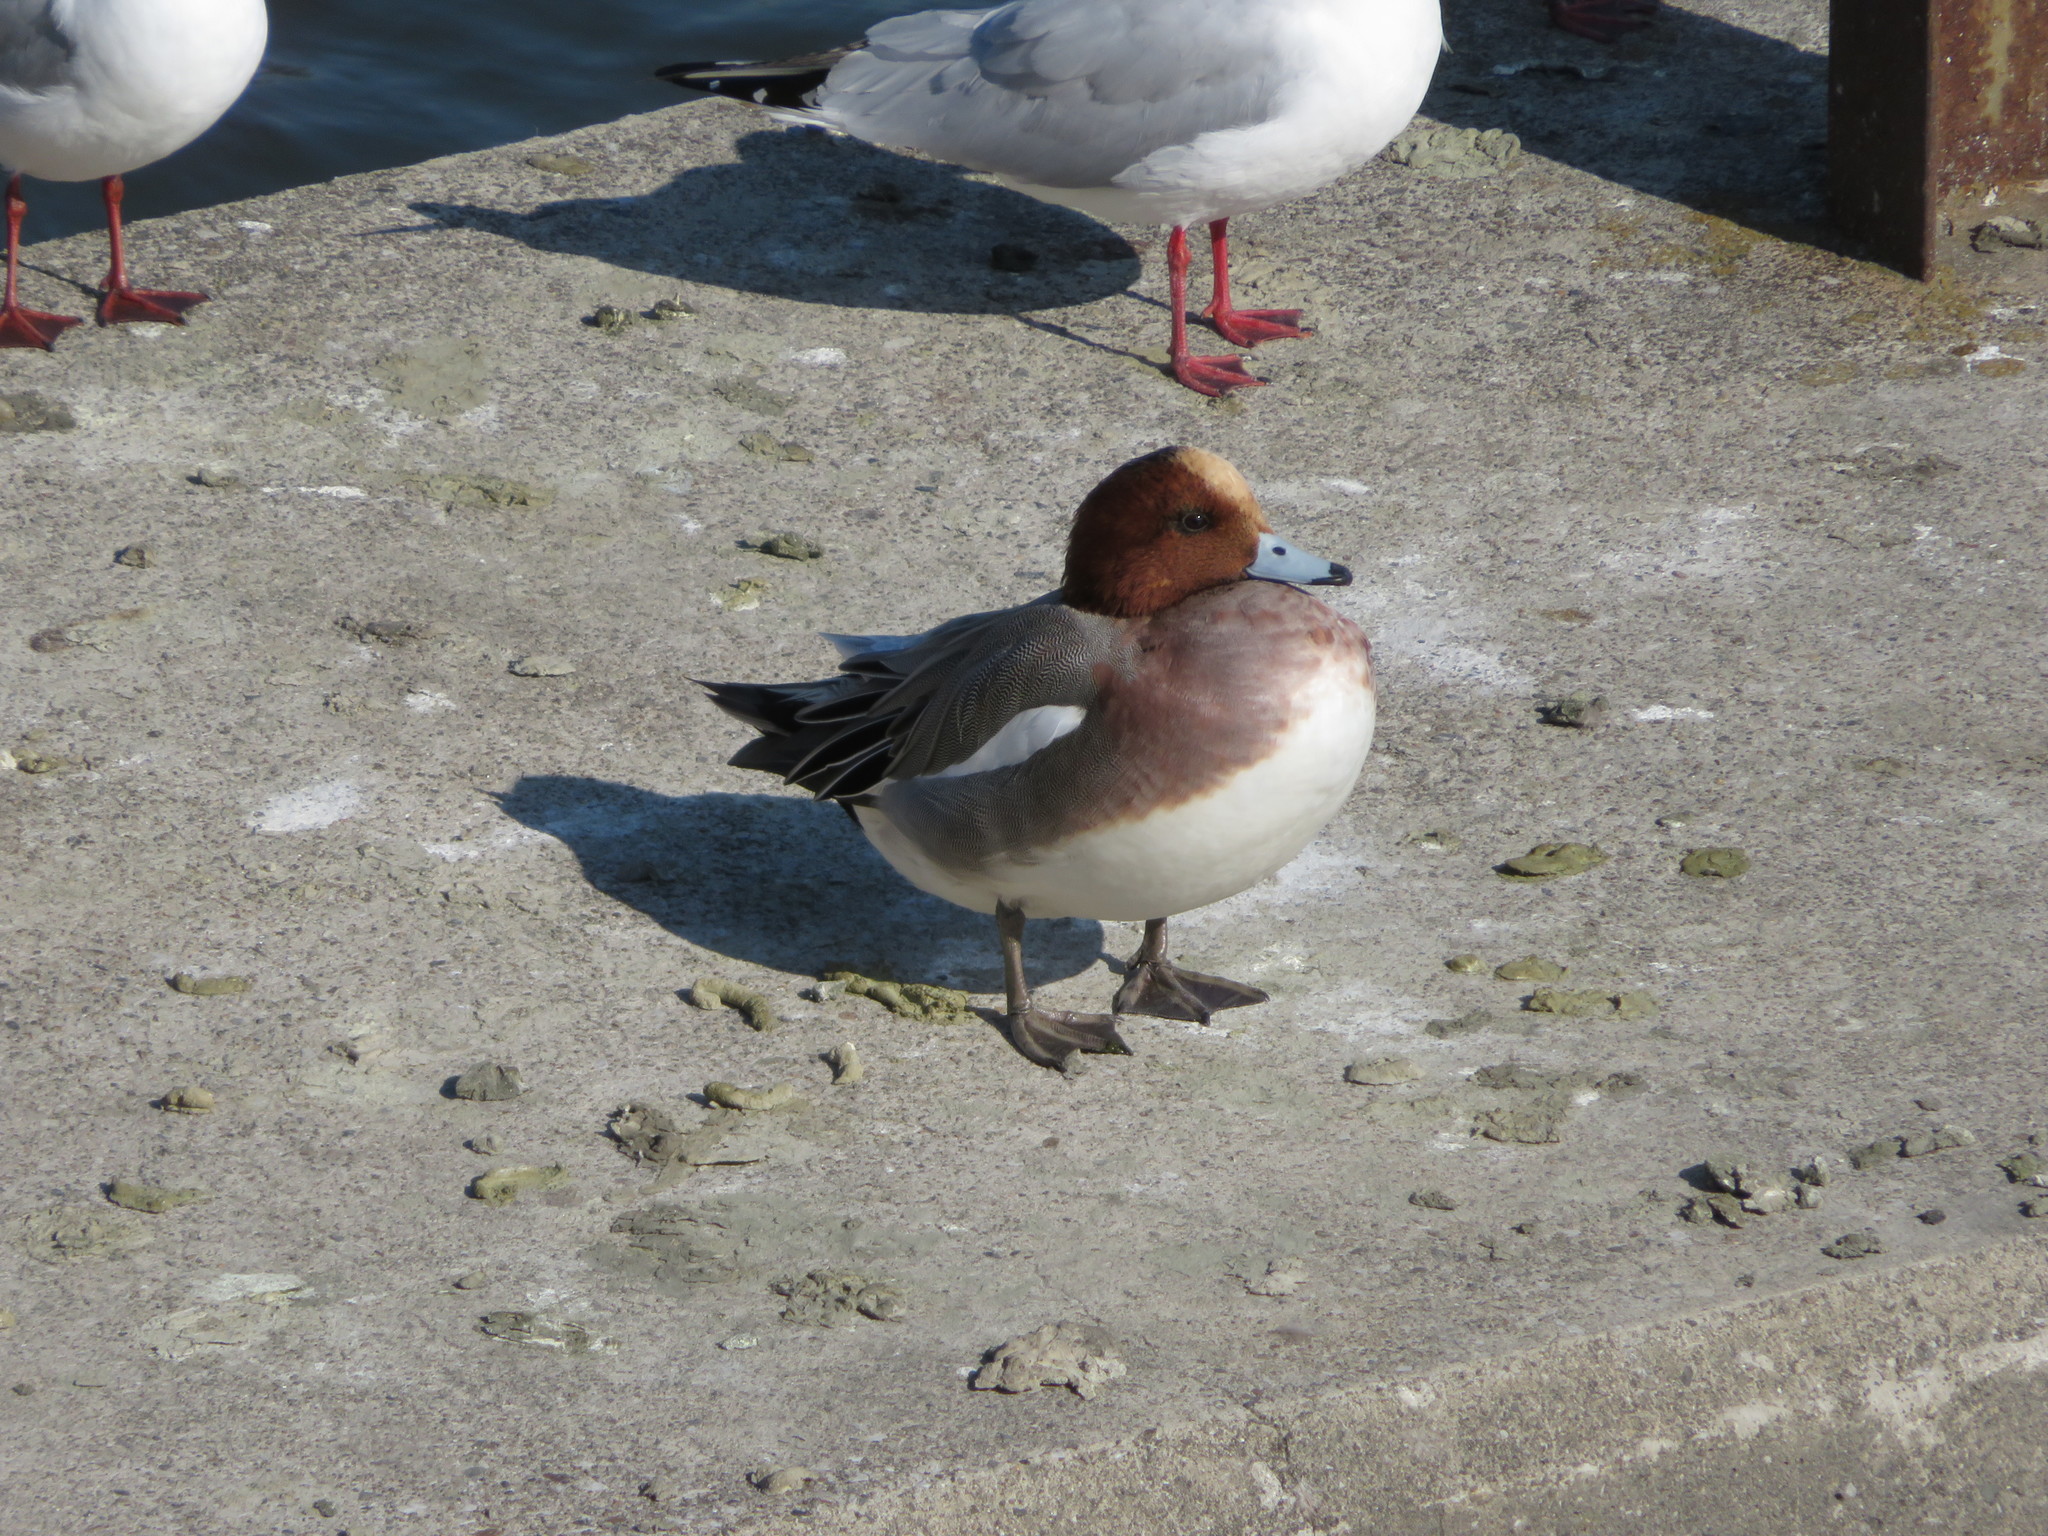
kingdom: Animalia
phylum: Chordata
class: Aves
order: Anseriformes
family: Anatidae
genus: Mareca
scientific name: Mareca penelope
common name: Eurasian wigeon
